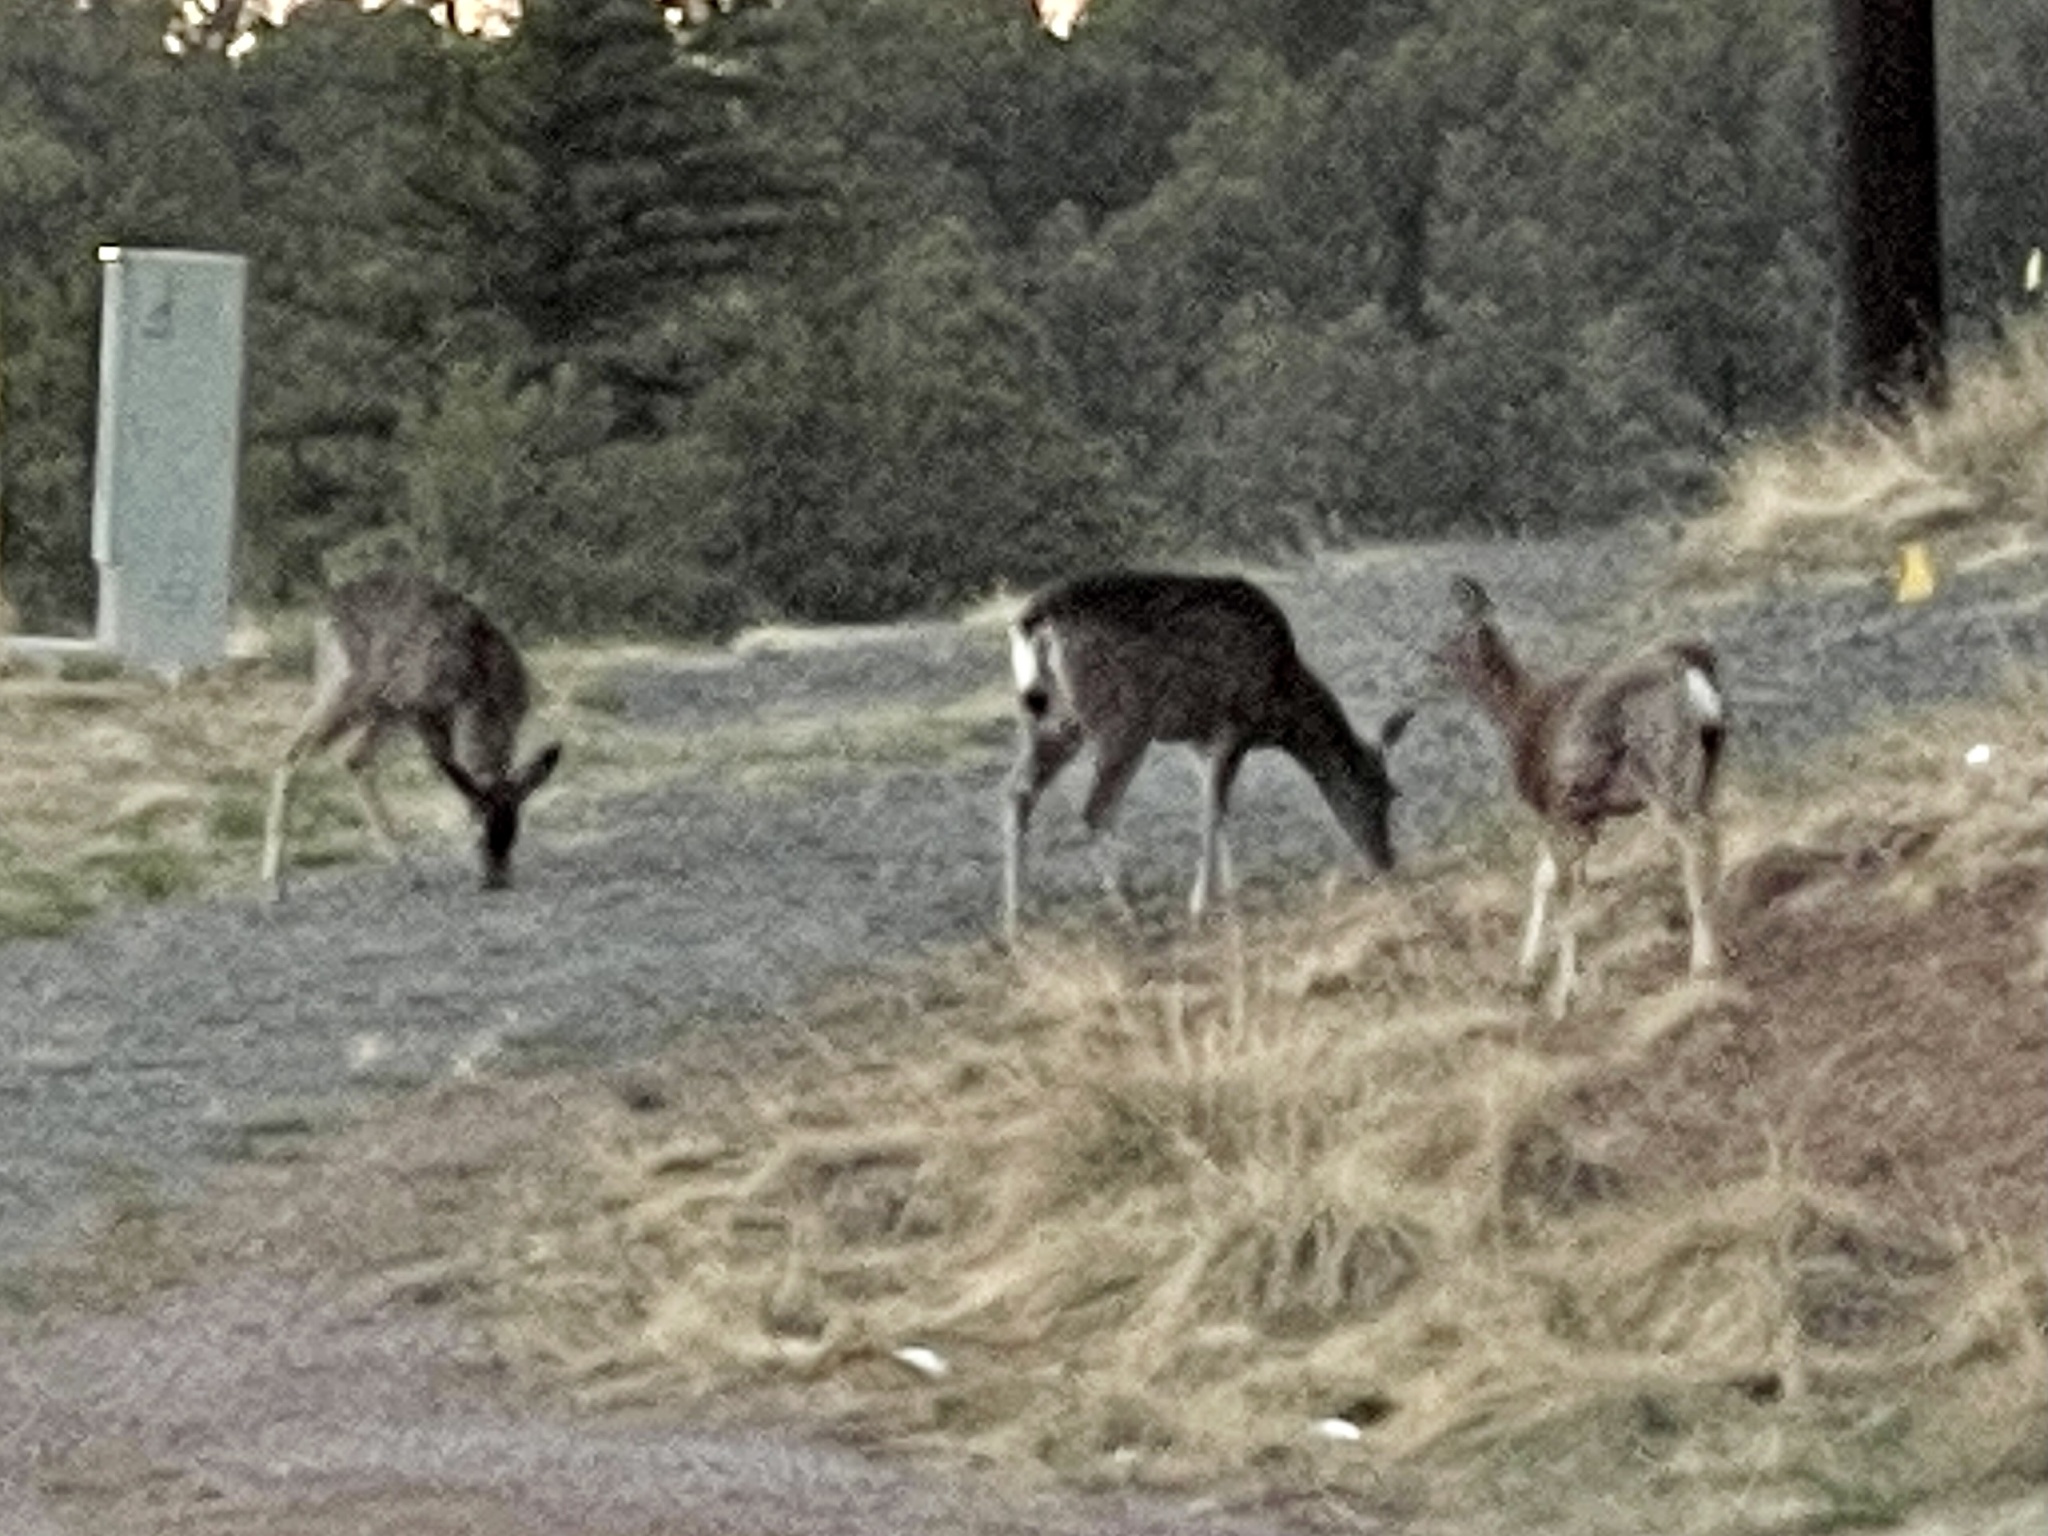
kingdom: Animalia
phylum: Chordata
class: Mammalia
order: Artiodactyla
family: Cervidae
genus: Odocoileus
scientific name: Odocoileus hemionus
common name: Mule deer
